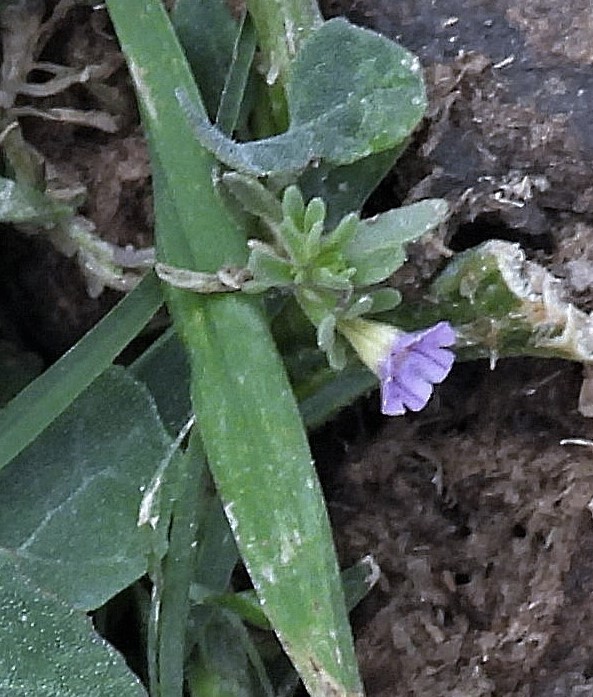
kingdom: Plantae
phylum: Tracheophyta
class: Magnoliopsida
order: Solanales
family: Solanaceae
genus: Calibrachoa
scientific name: Calibrachoa parviflora
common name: Seaside petunia
